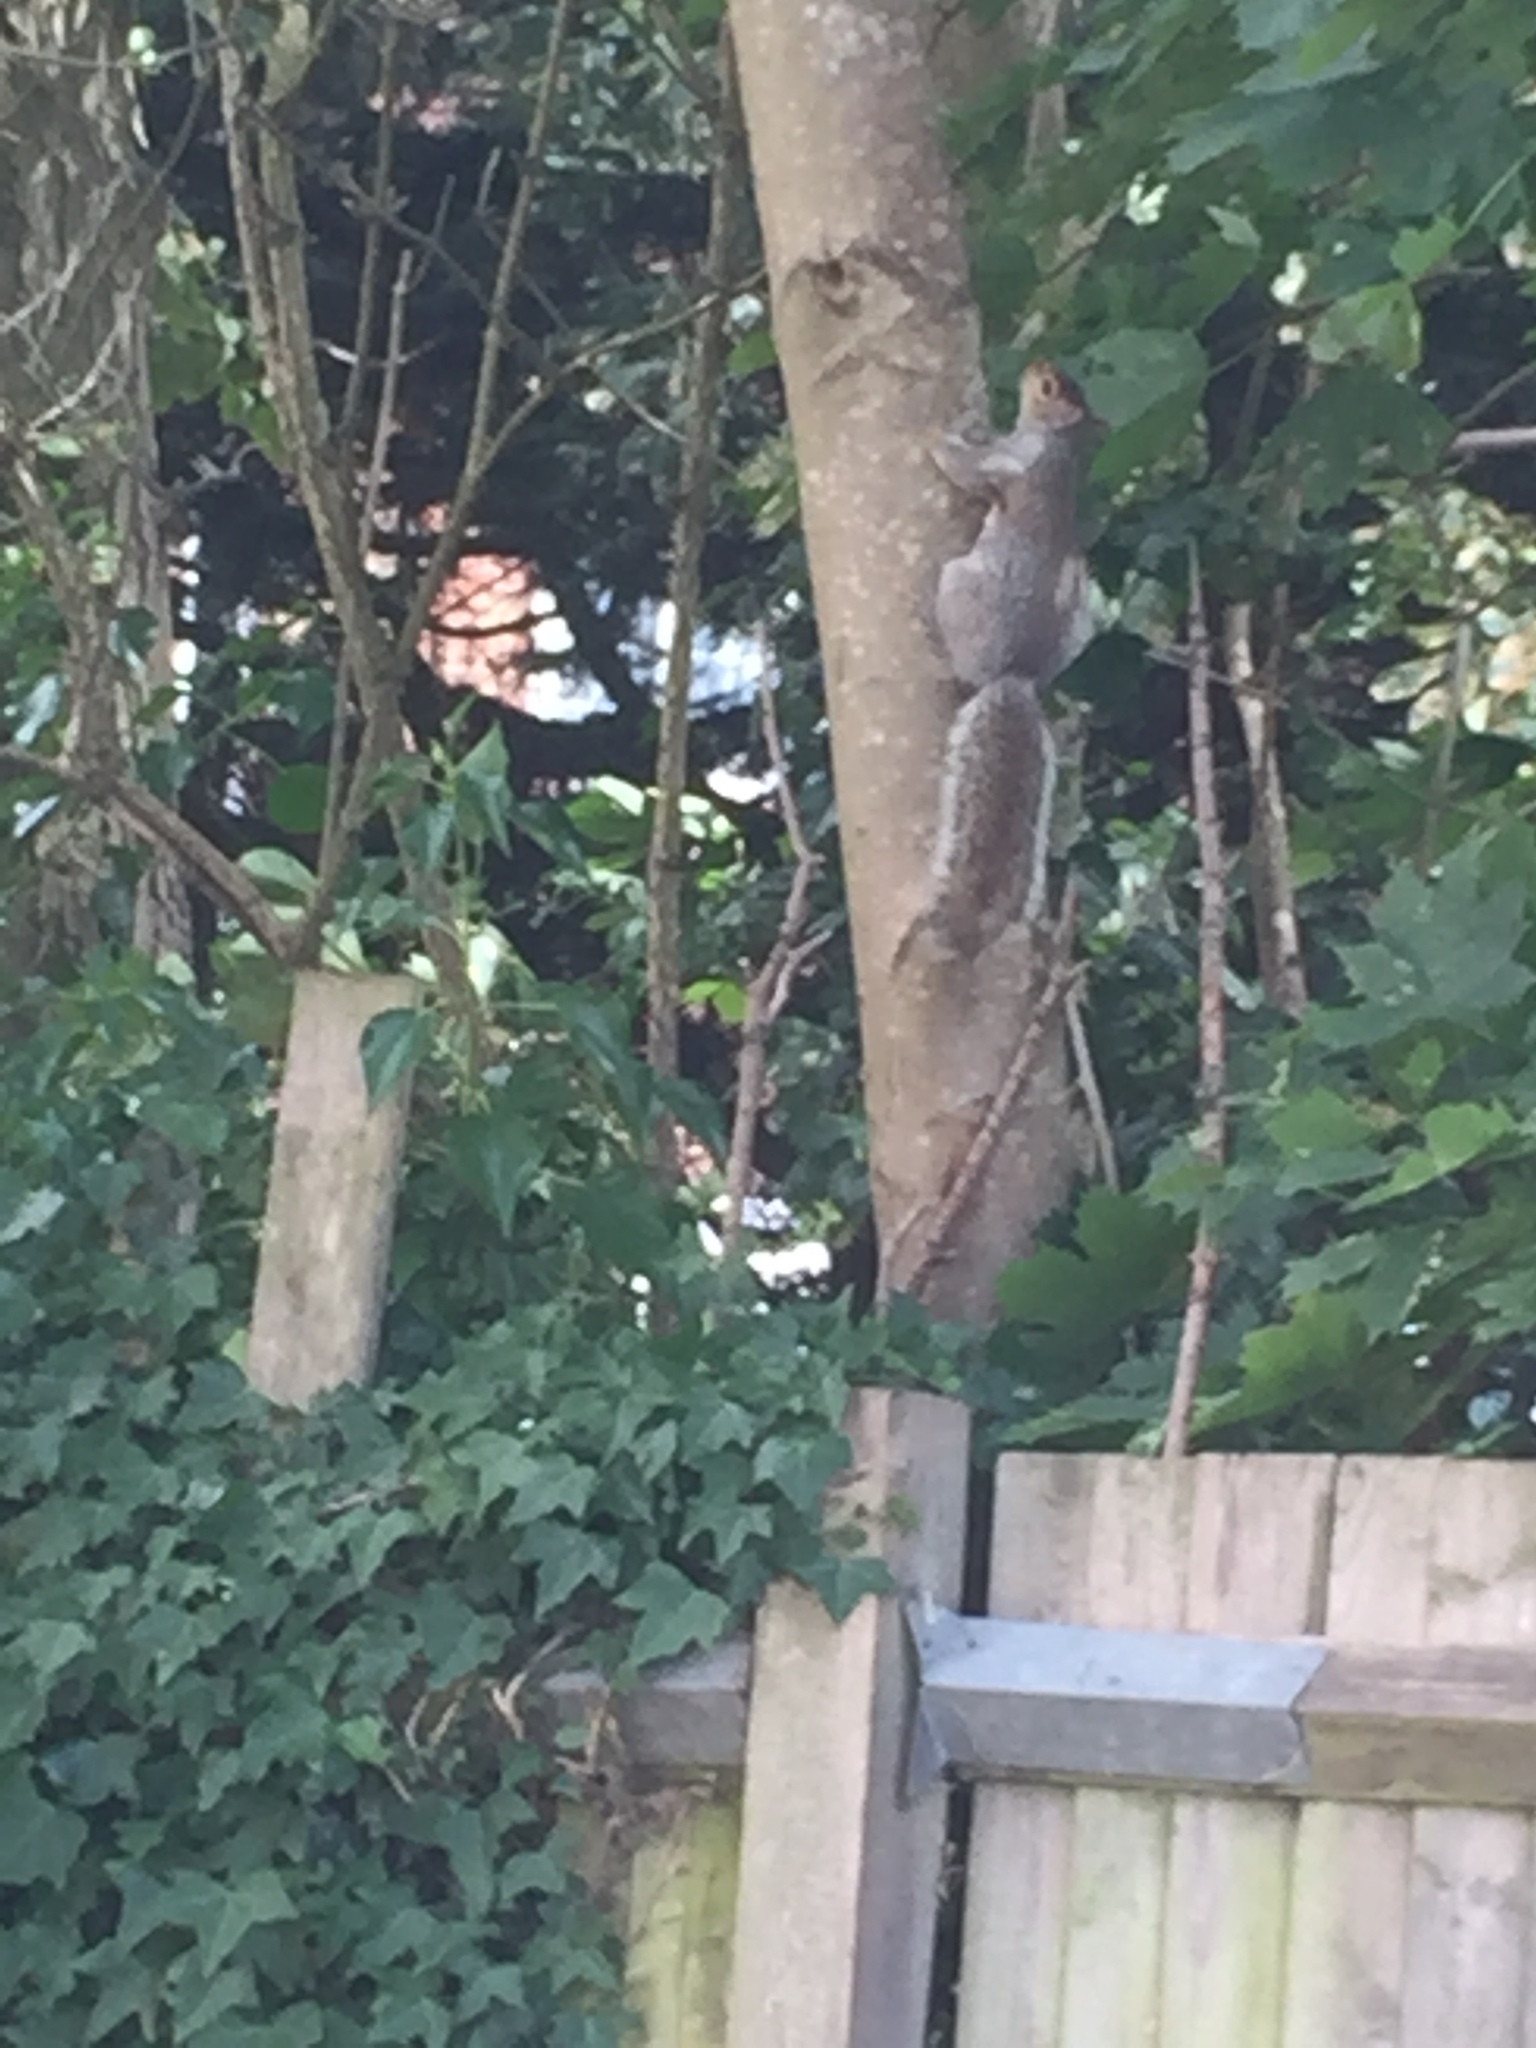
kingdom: Animalia
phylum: Chordata
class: Mammalia
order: Rodentia
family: Sciuridae
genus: Sciurus
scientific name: Sciurus carolinensis
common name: Eastern gray squirrel
